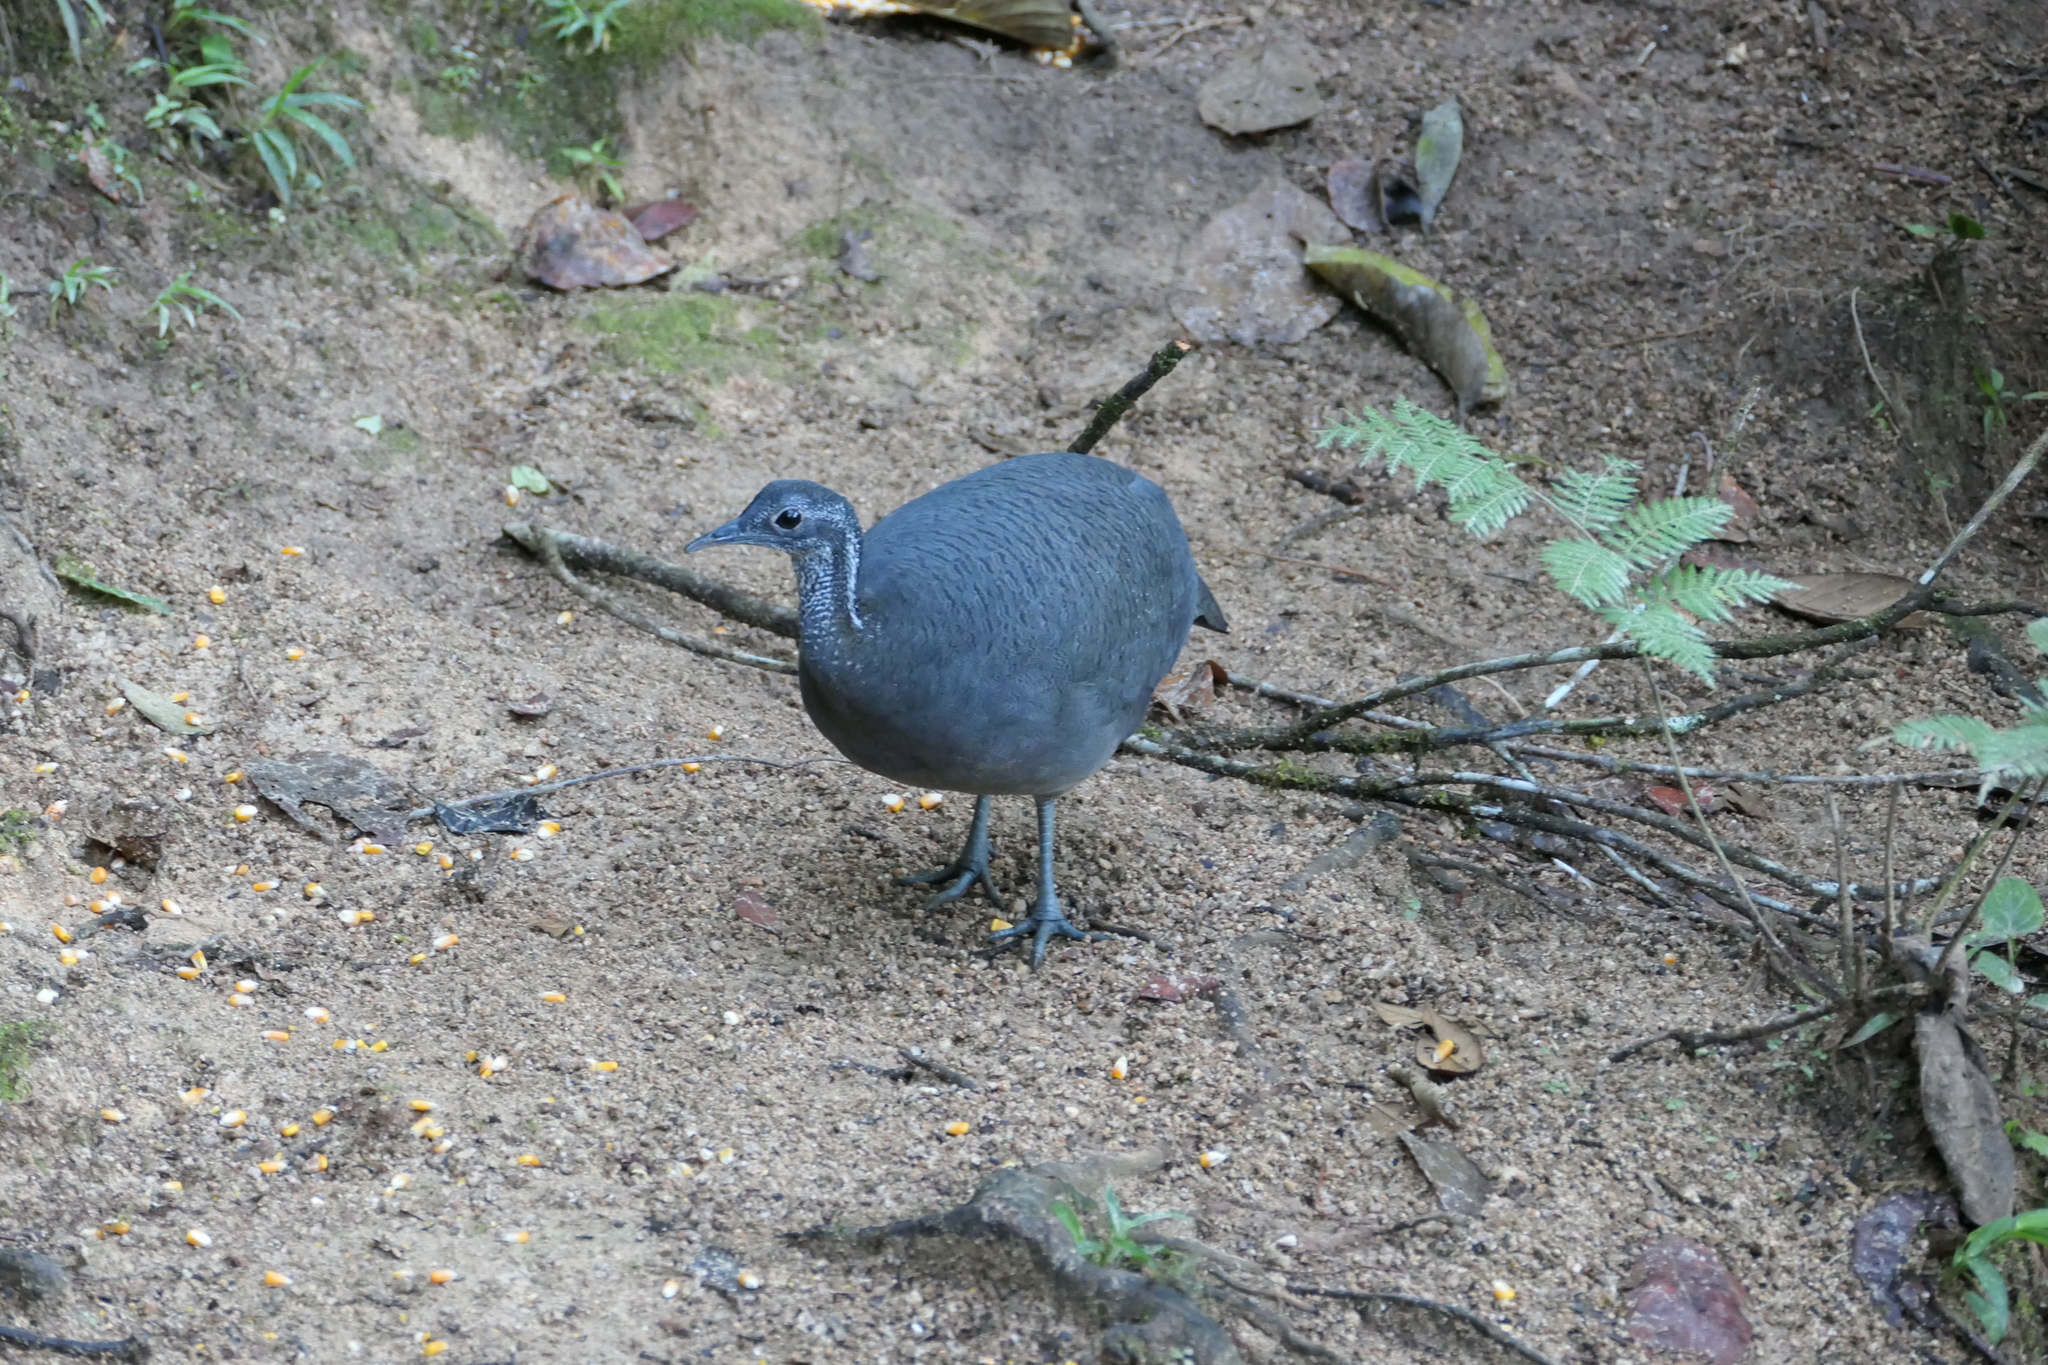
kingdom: Animalia
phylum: Chordata
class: Aves
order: Tinamiformes
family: Tinamidae
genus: Tinamus
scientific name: Tinamus tao
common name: Grey tinamou
